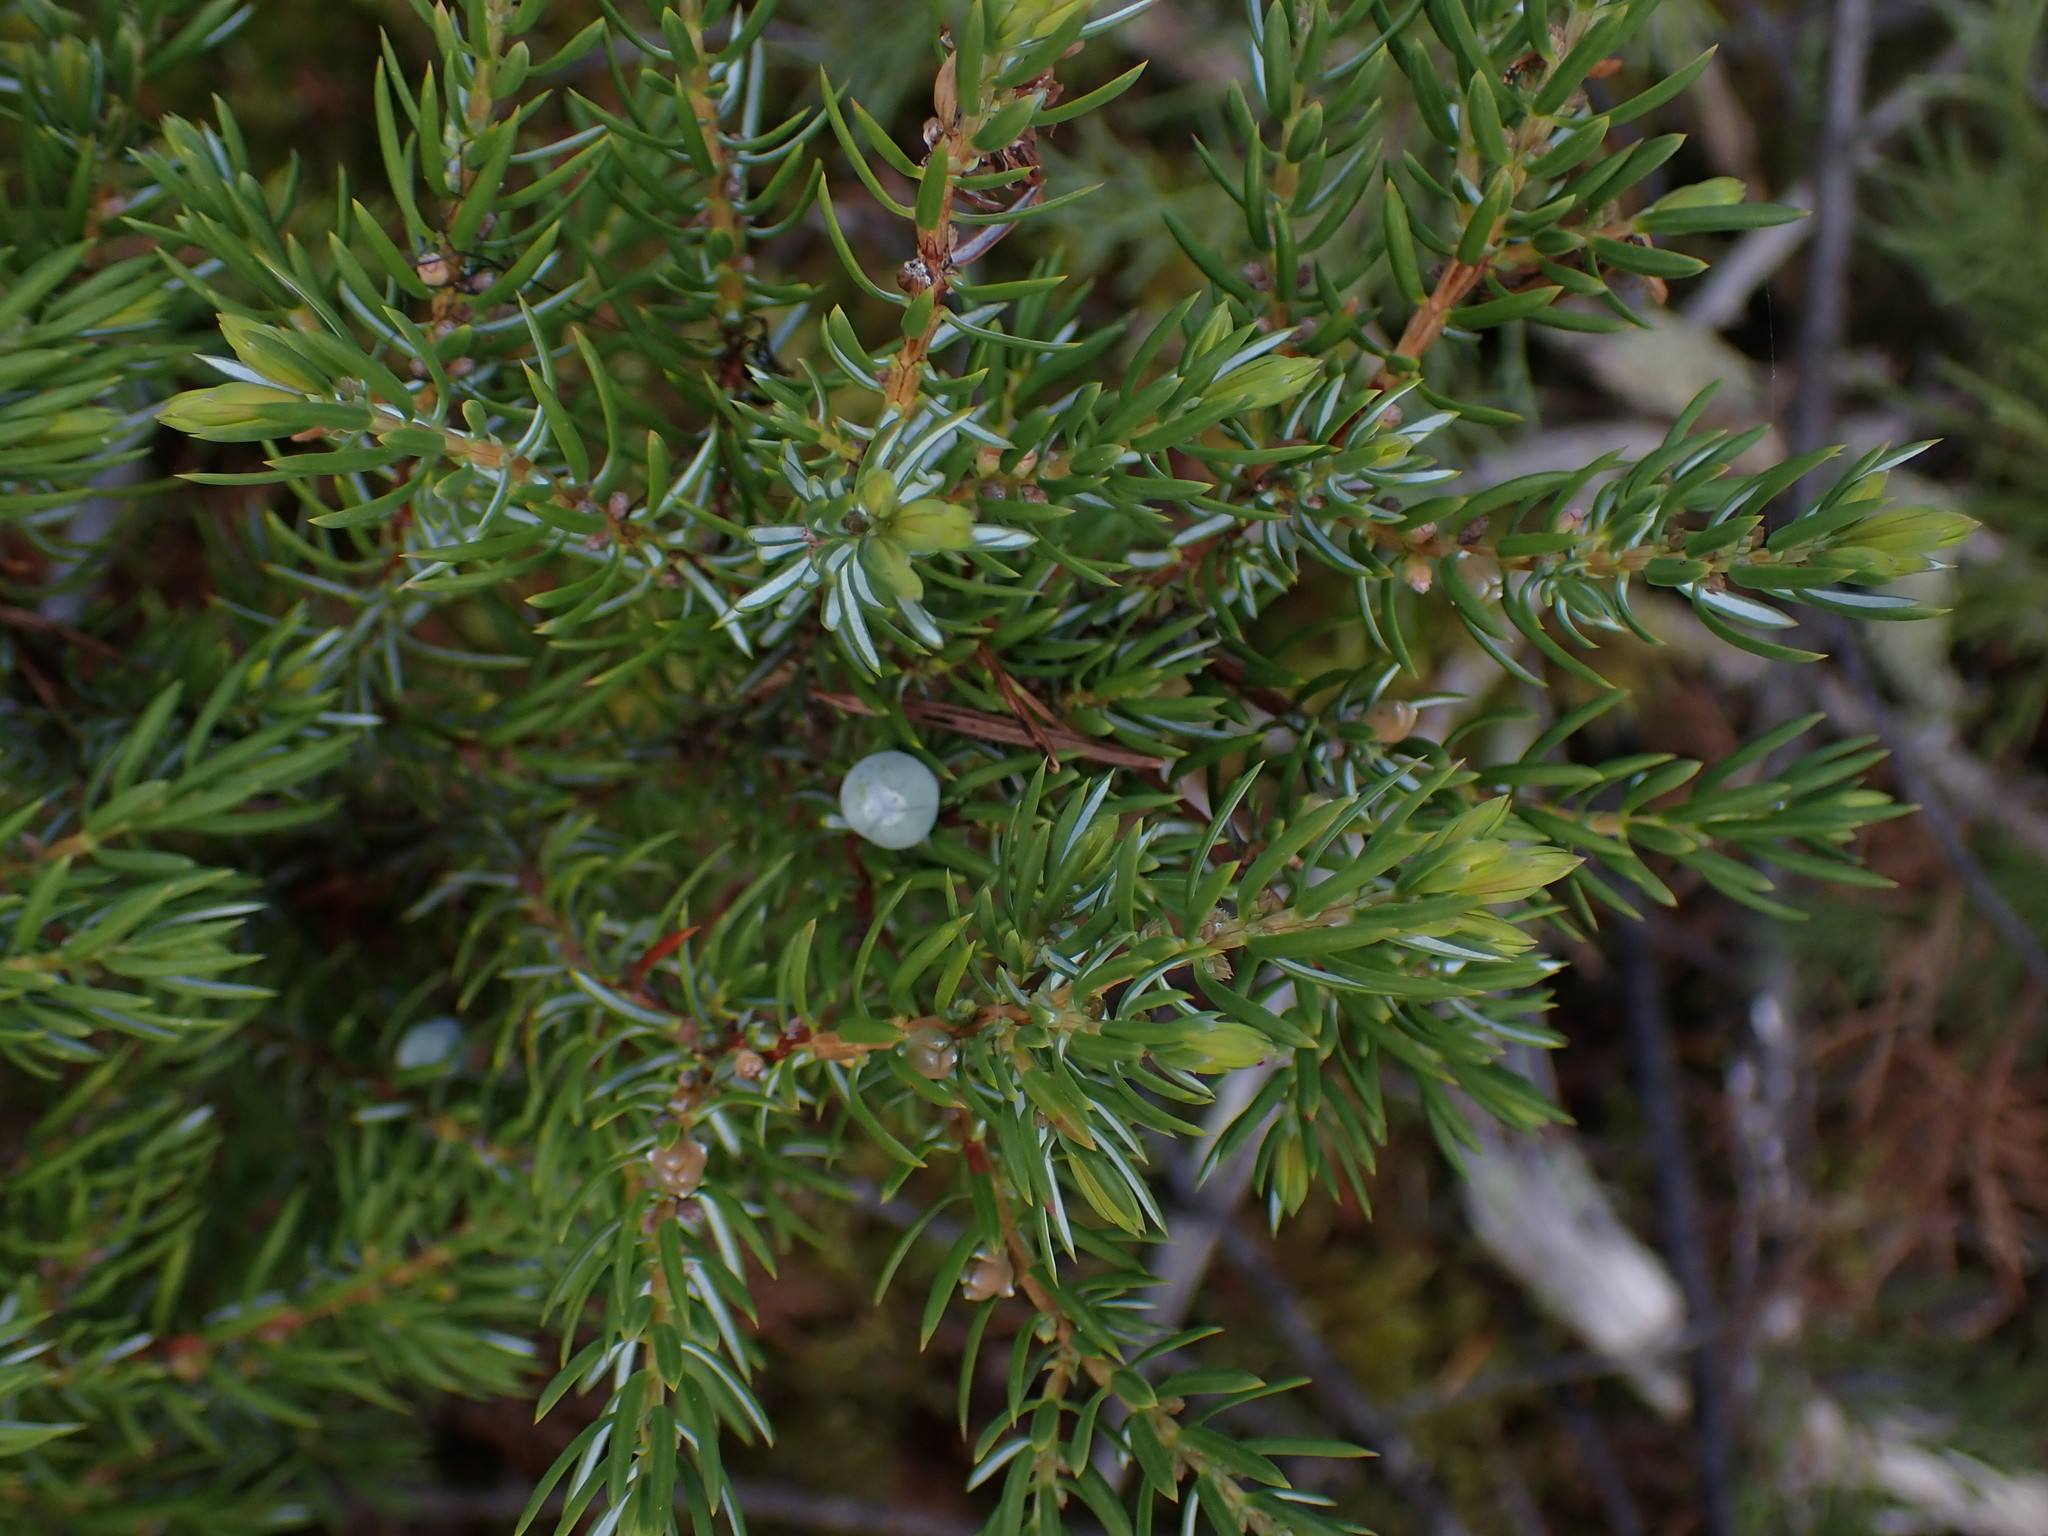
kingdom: Plantae
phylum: Tracheophyta
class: Pinopsida
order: Pinales
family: Cupressaceae
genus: Juniperus
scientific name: Juniperus communis
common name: Common juniper
